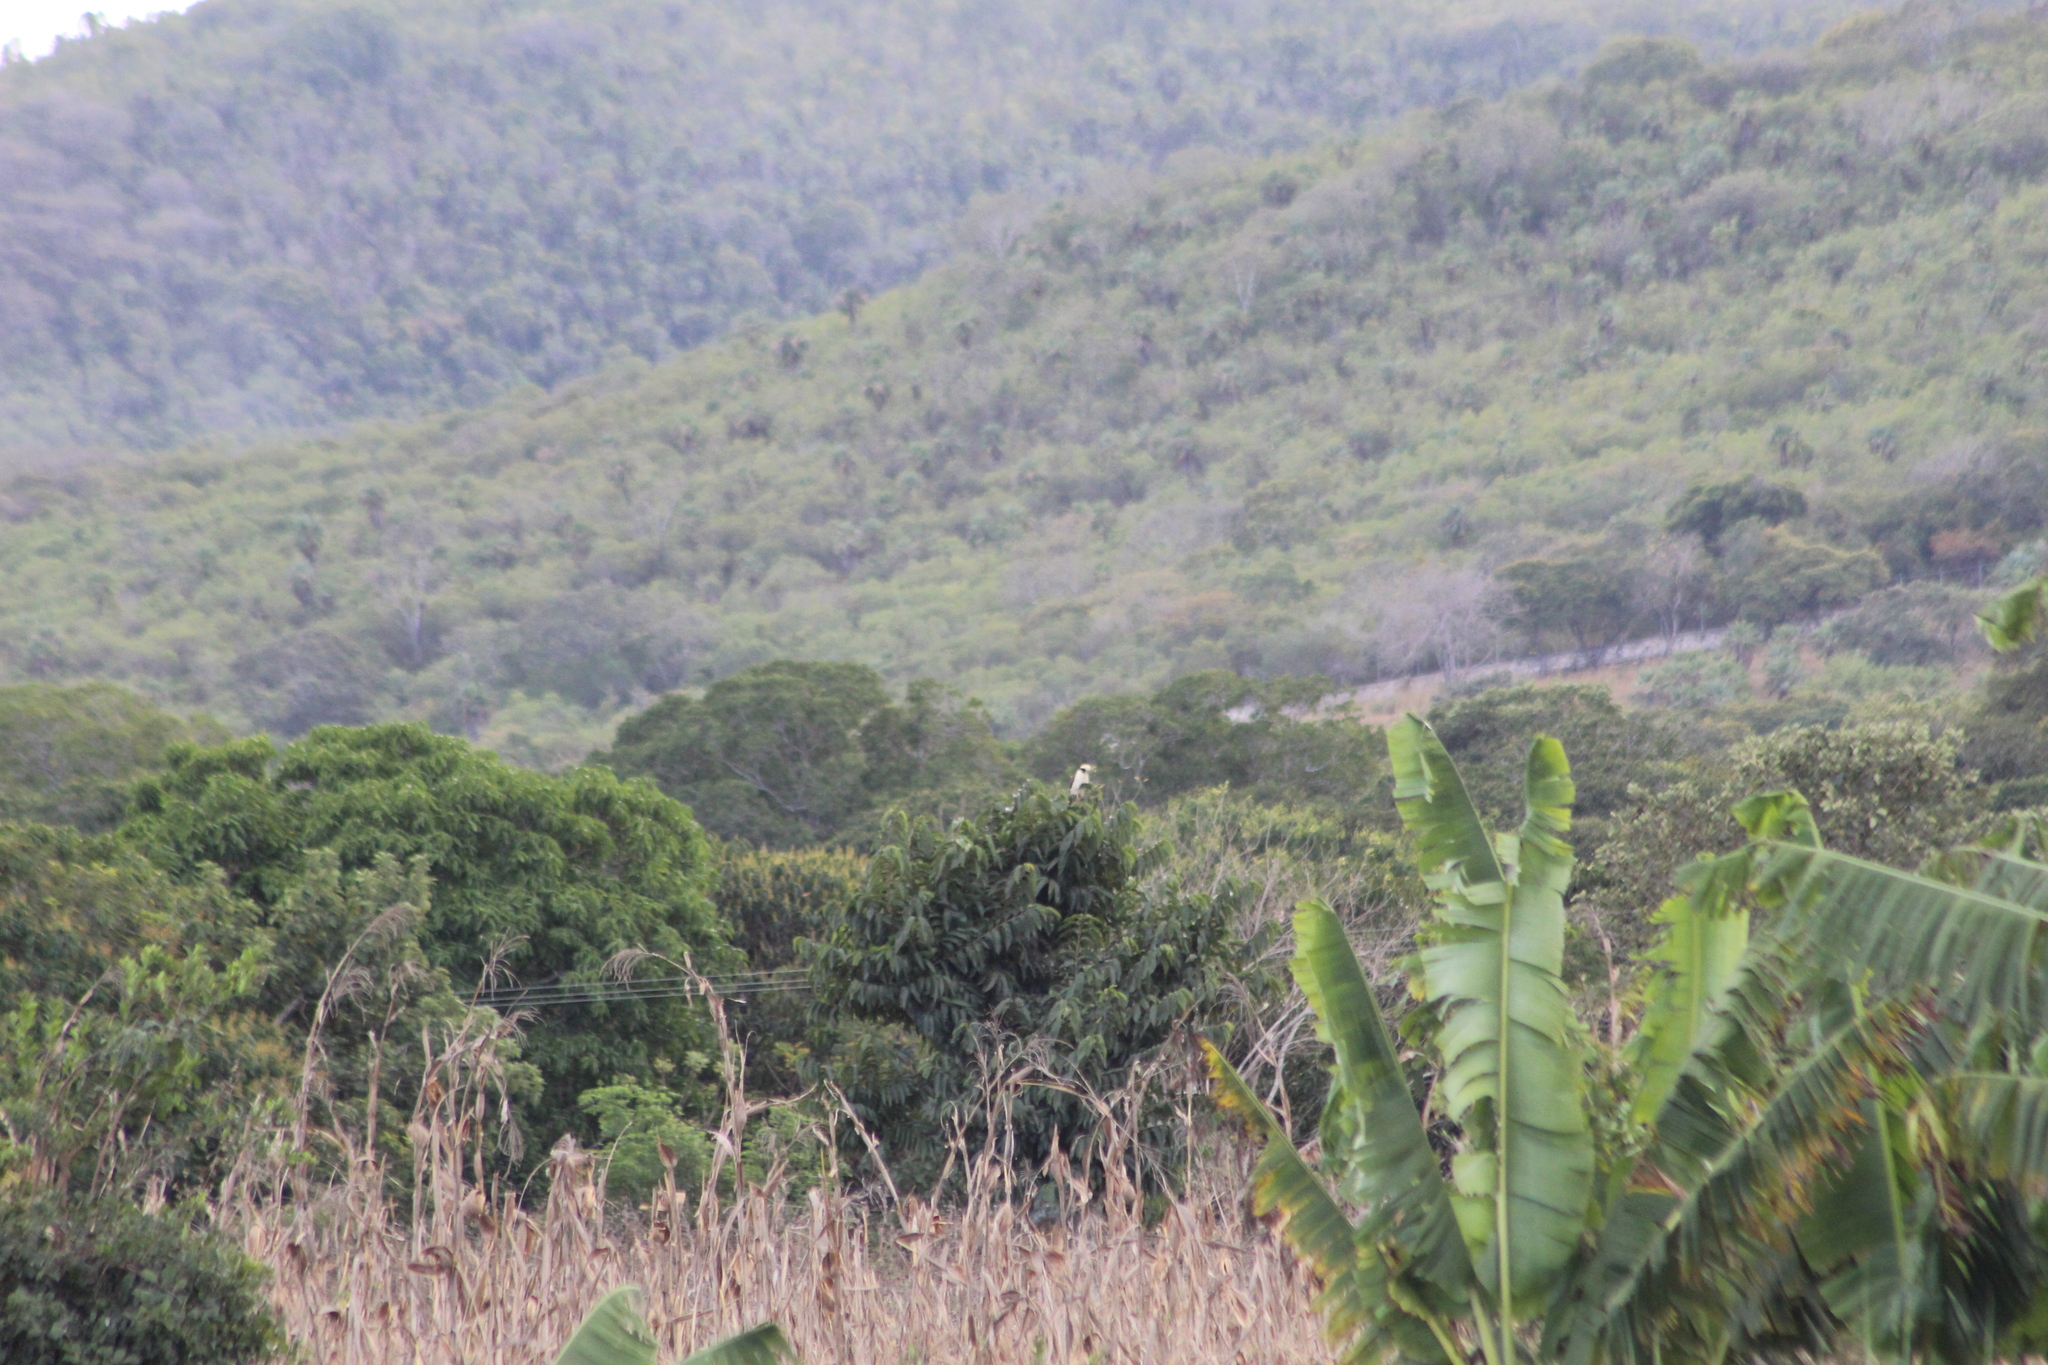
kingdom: Animalia
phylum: Chordata
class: Aves
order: Falconiformes
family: Falconidae
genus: Herpetotheres
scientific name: Herpetotheres cachinnans
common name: Laughing falcon
